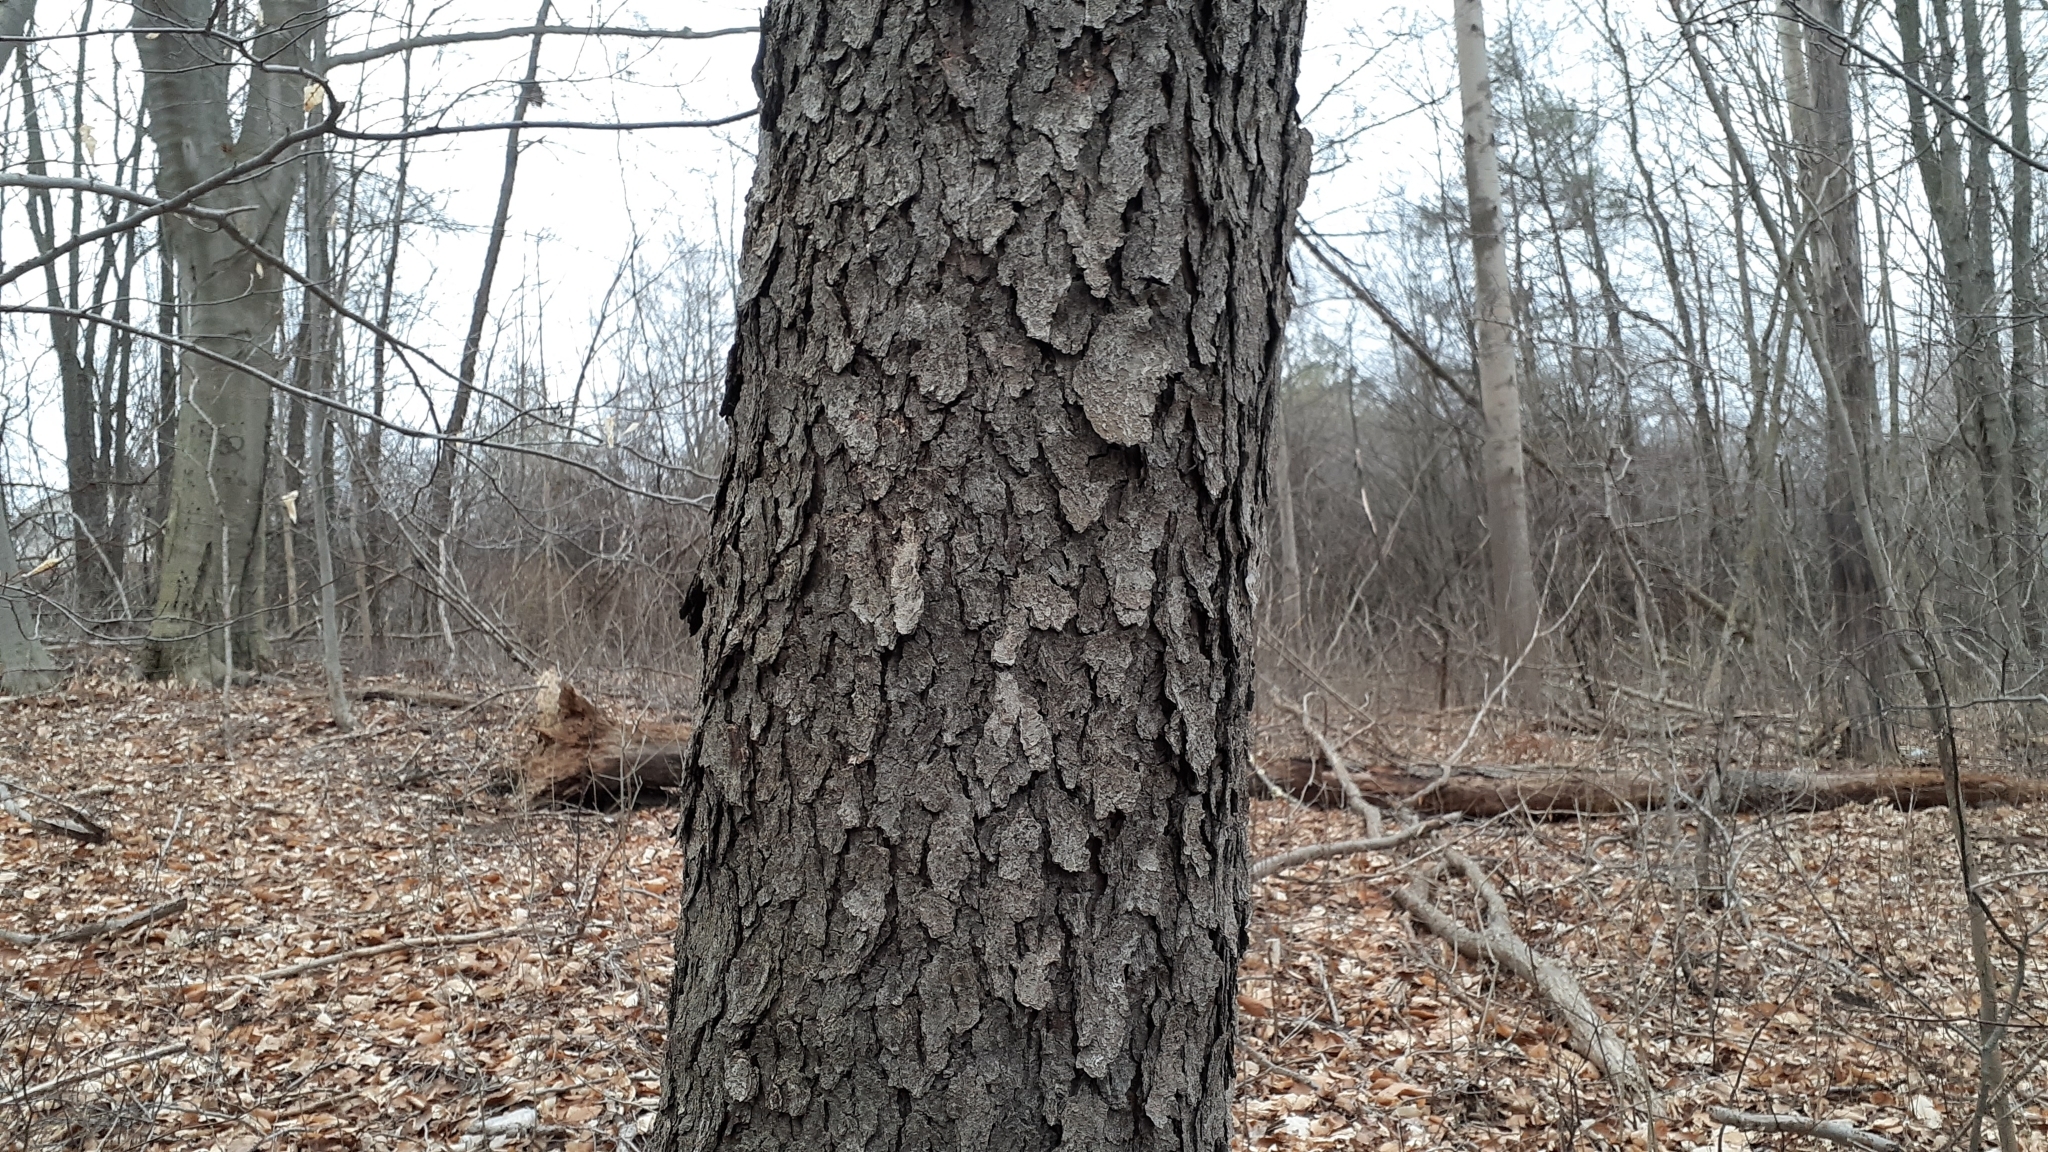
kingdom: Plantae
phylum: Tracheophyta
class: Magnoliopsida
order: Rosales
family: Rosaceae
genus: Prunus
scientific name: Prunus serotina
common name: Black cherry
